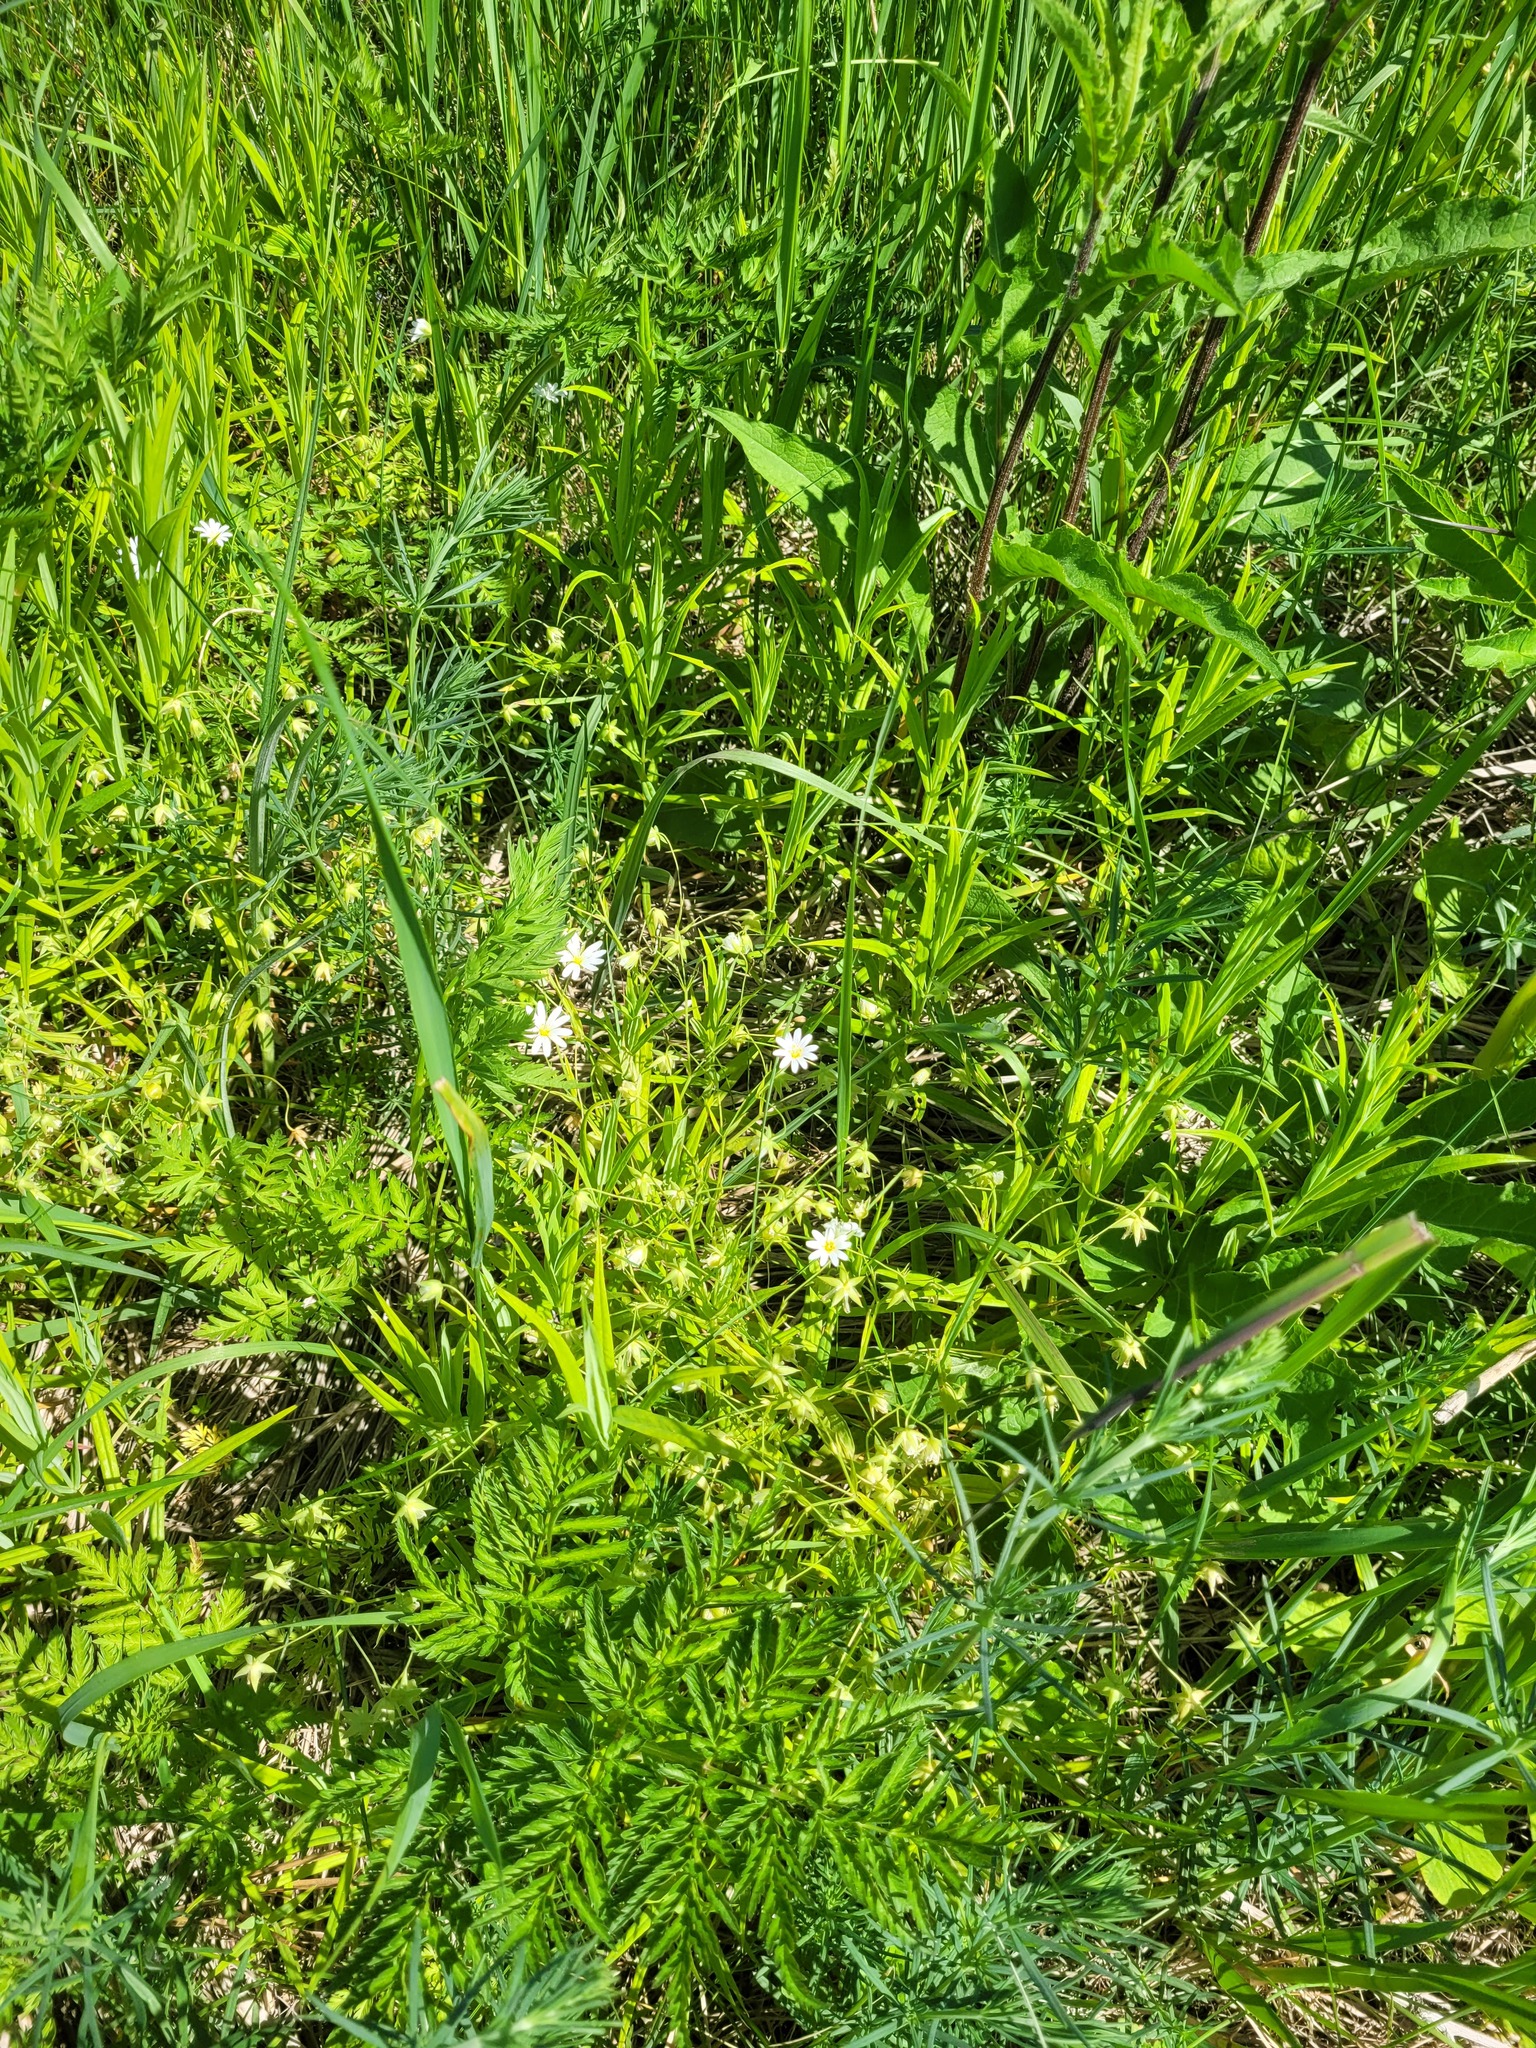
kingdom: Plantae
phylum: Tracheophyta
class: Magnoliopsida
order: Caryophyllales
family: Caryophyllaceae
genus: Rabelera
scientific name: Rabelera holostea
